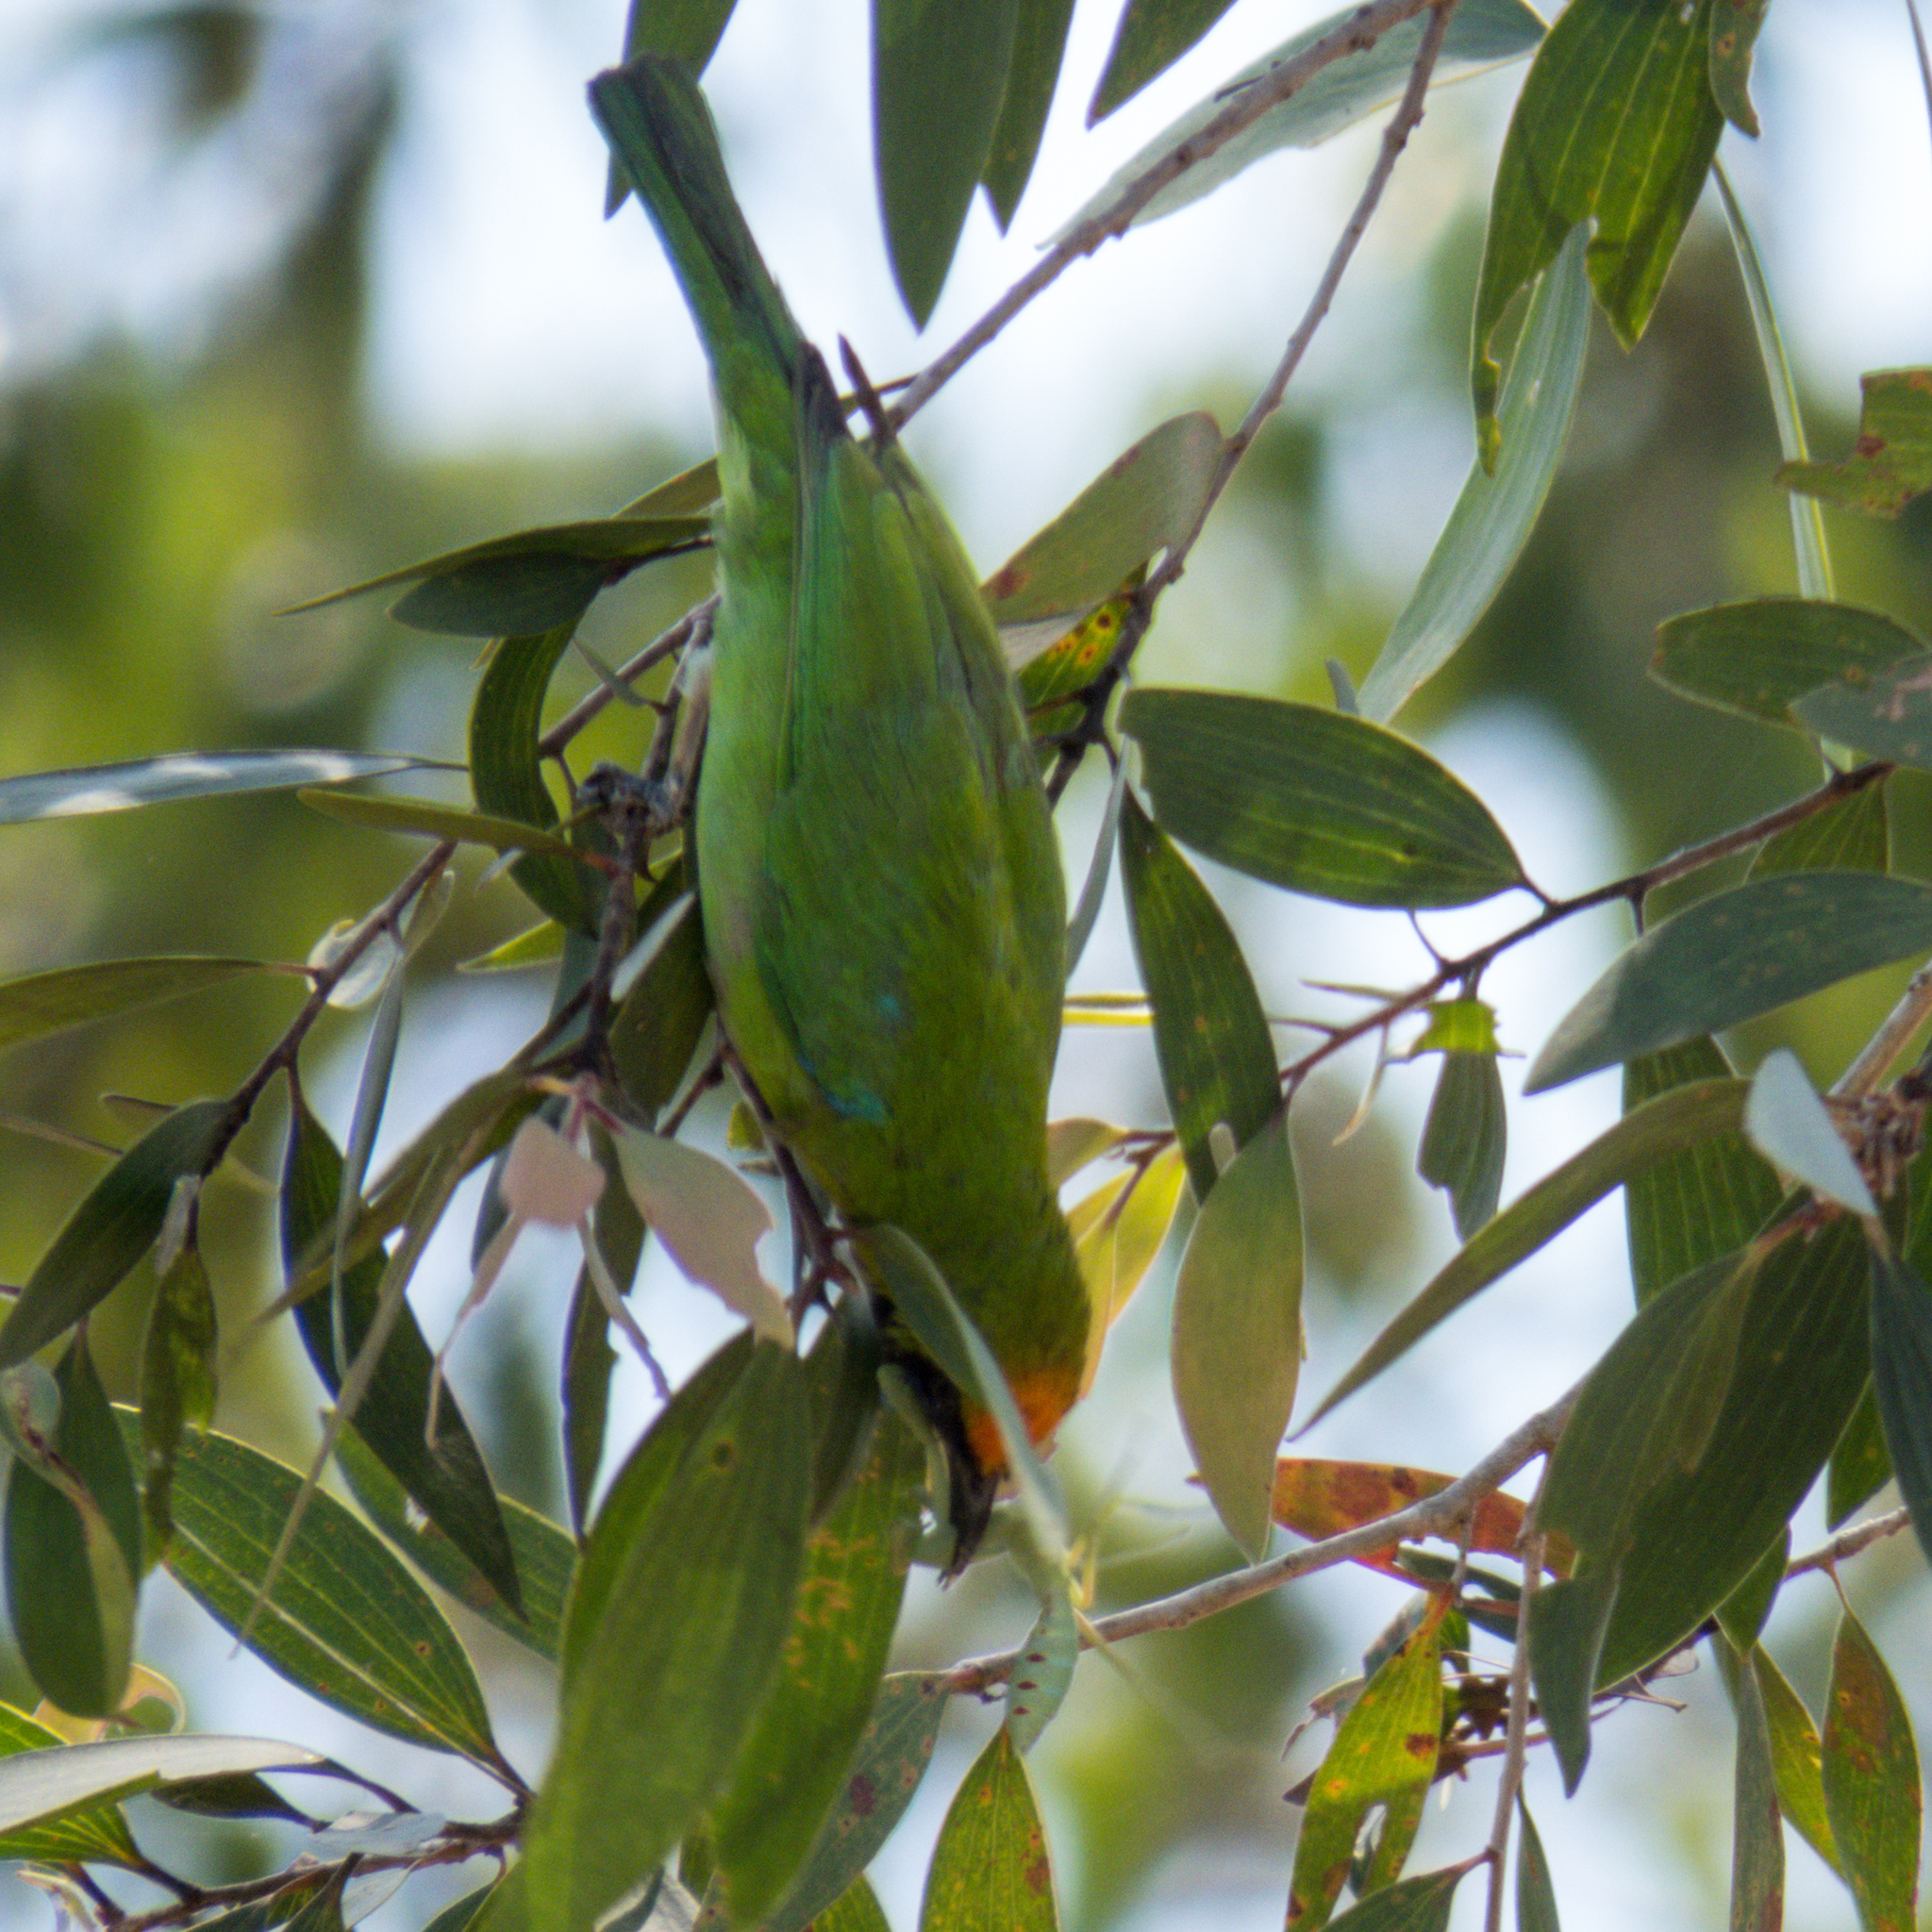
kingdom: Animalia
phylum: Chordata
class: Aves
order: Passeriformes
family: Chloropseidae
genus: Chloropsis
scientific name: Chloropsis aurifrons
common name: Golden-fronted leafbird
